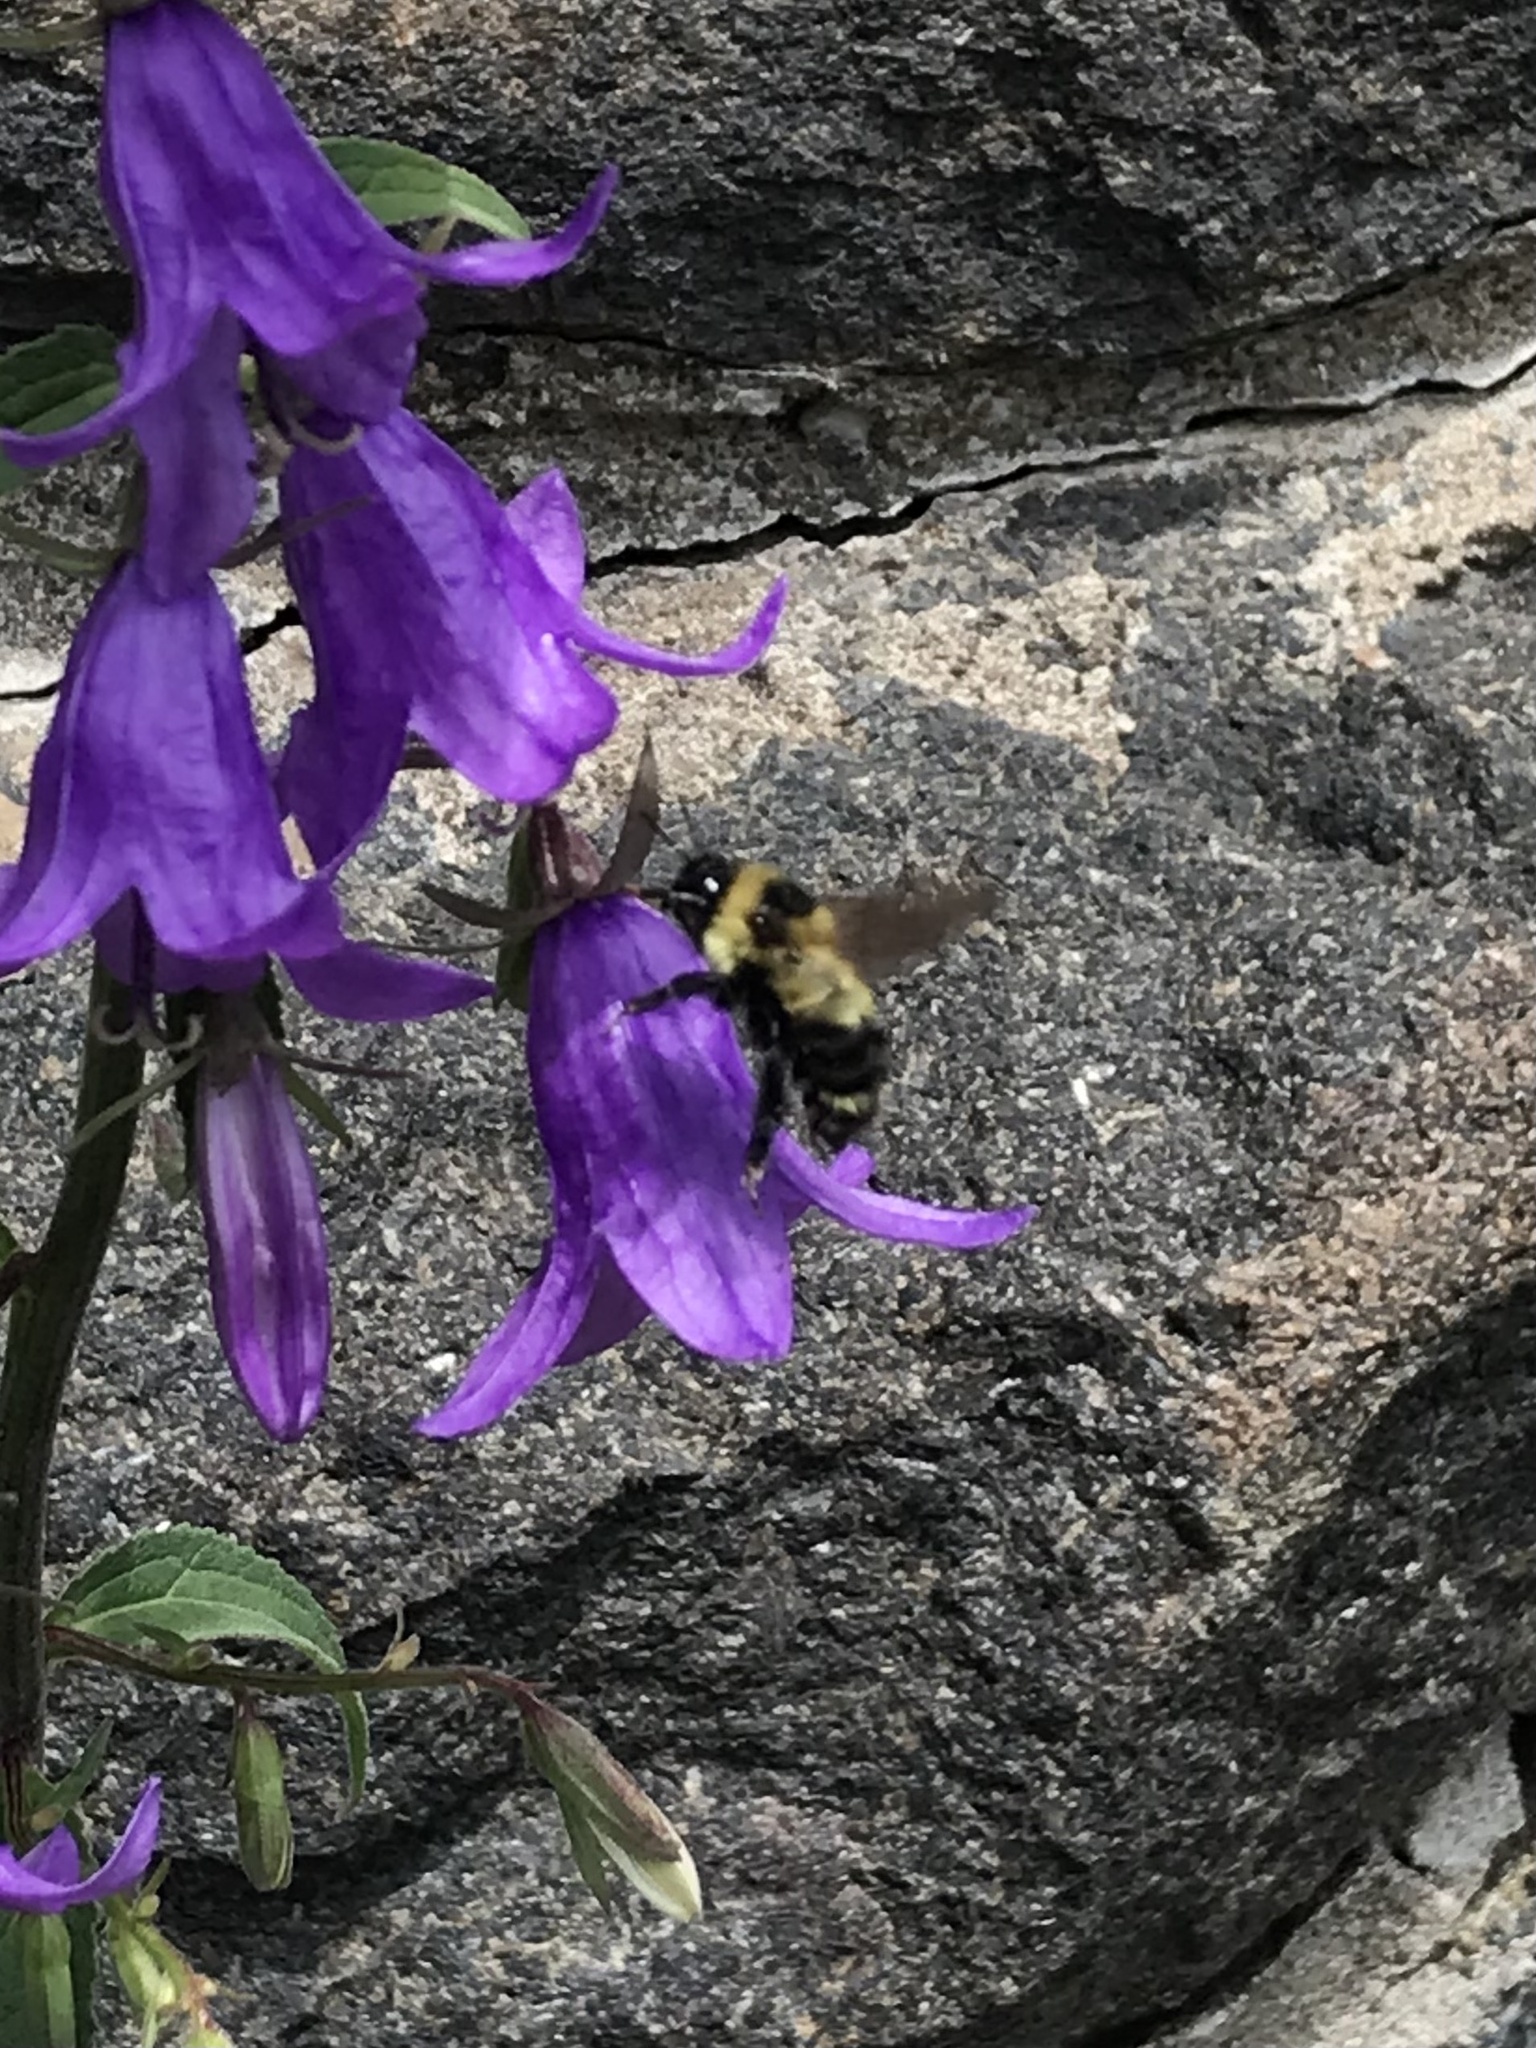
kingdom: Animalia
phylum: Arthropoda
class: Insecta
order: Hymenoptera
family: Apidae
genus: Bombus
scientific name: Bombus rufocinctus
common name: Red-belted bumble bee
